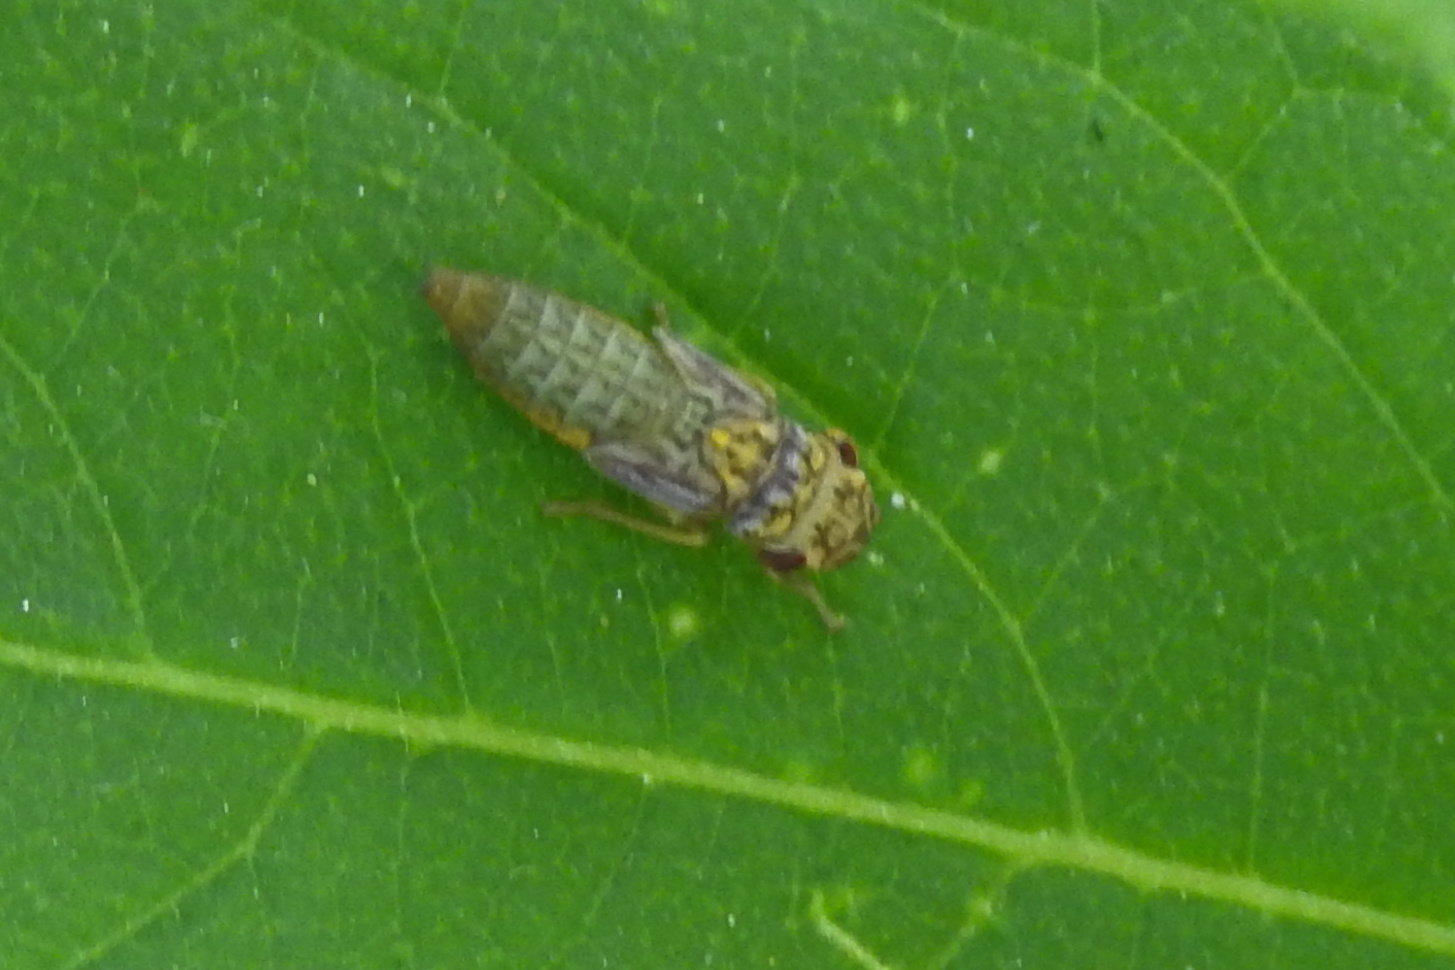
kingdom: Animalia
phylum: Arthropoda
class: Insecta
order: Hemiptera
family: Cicadellidae
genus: Oncometopia
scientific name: Oncometopia orbona
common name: Broad-headed sharpshooter
